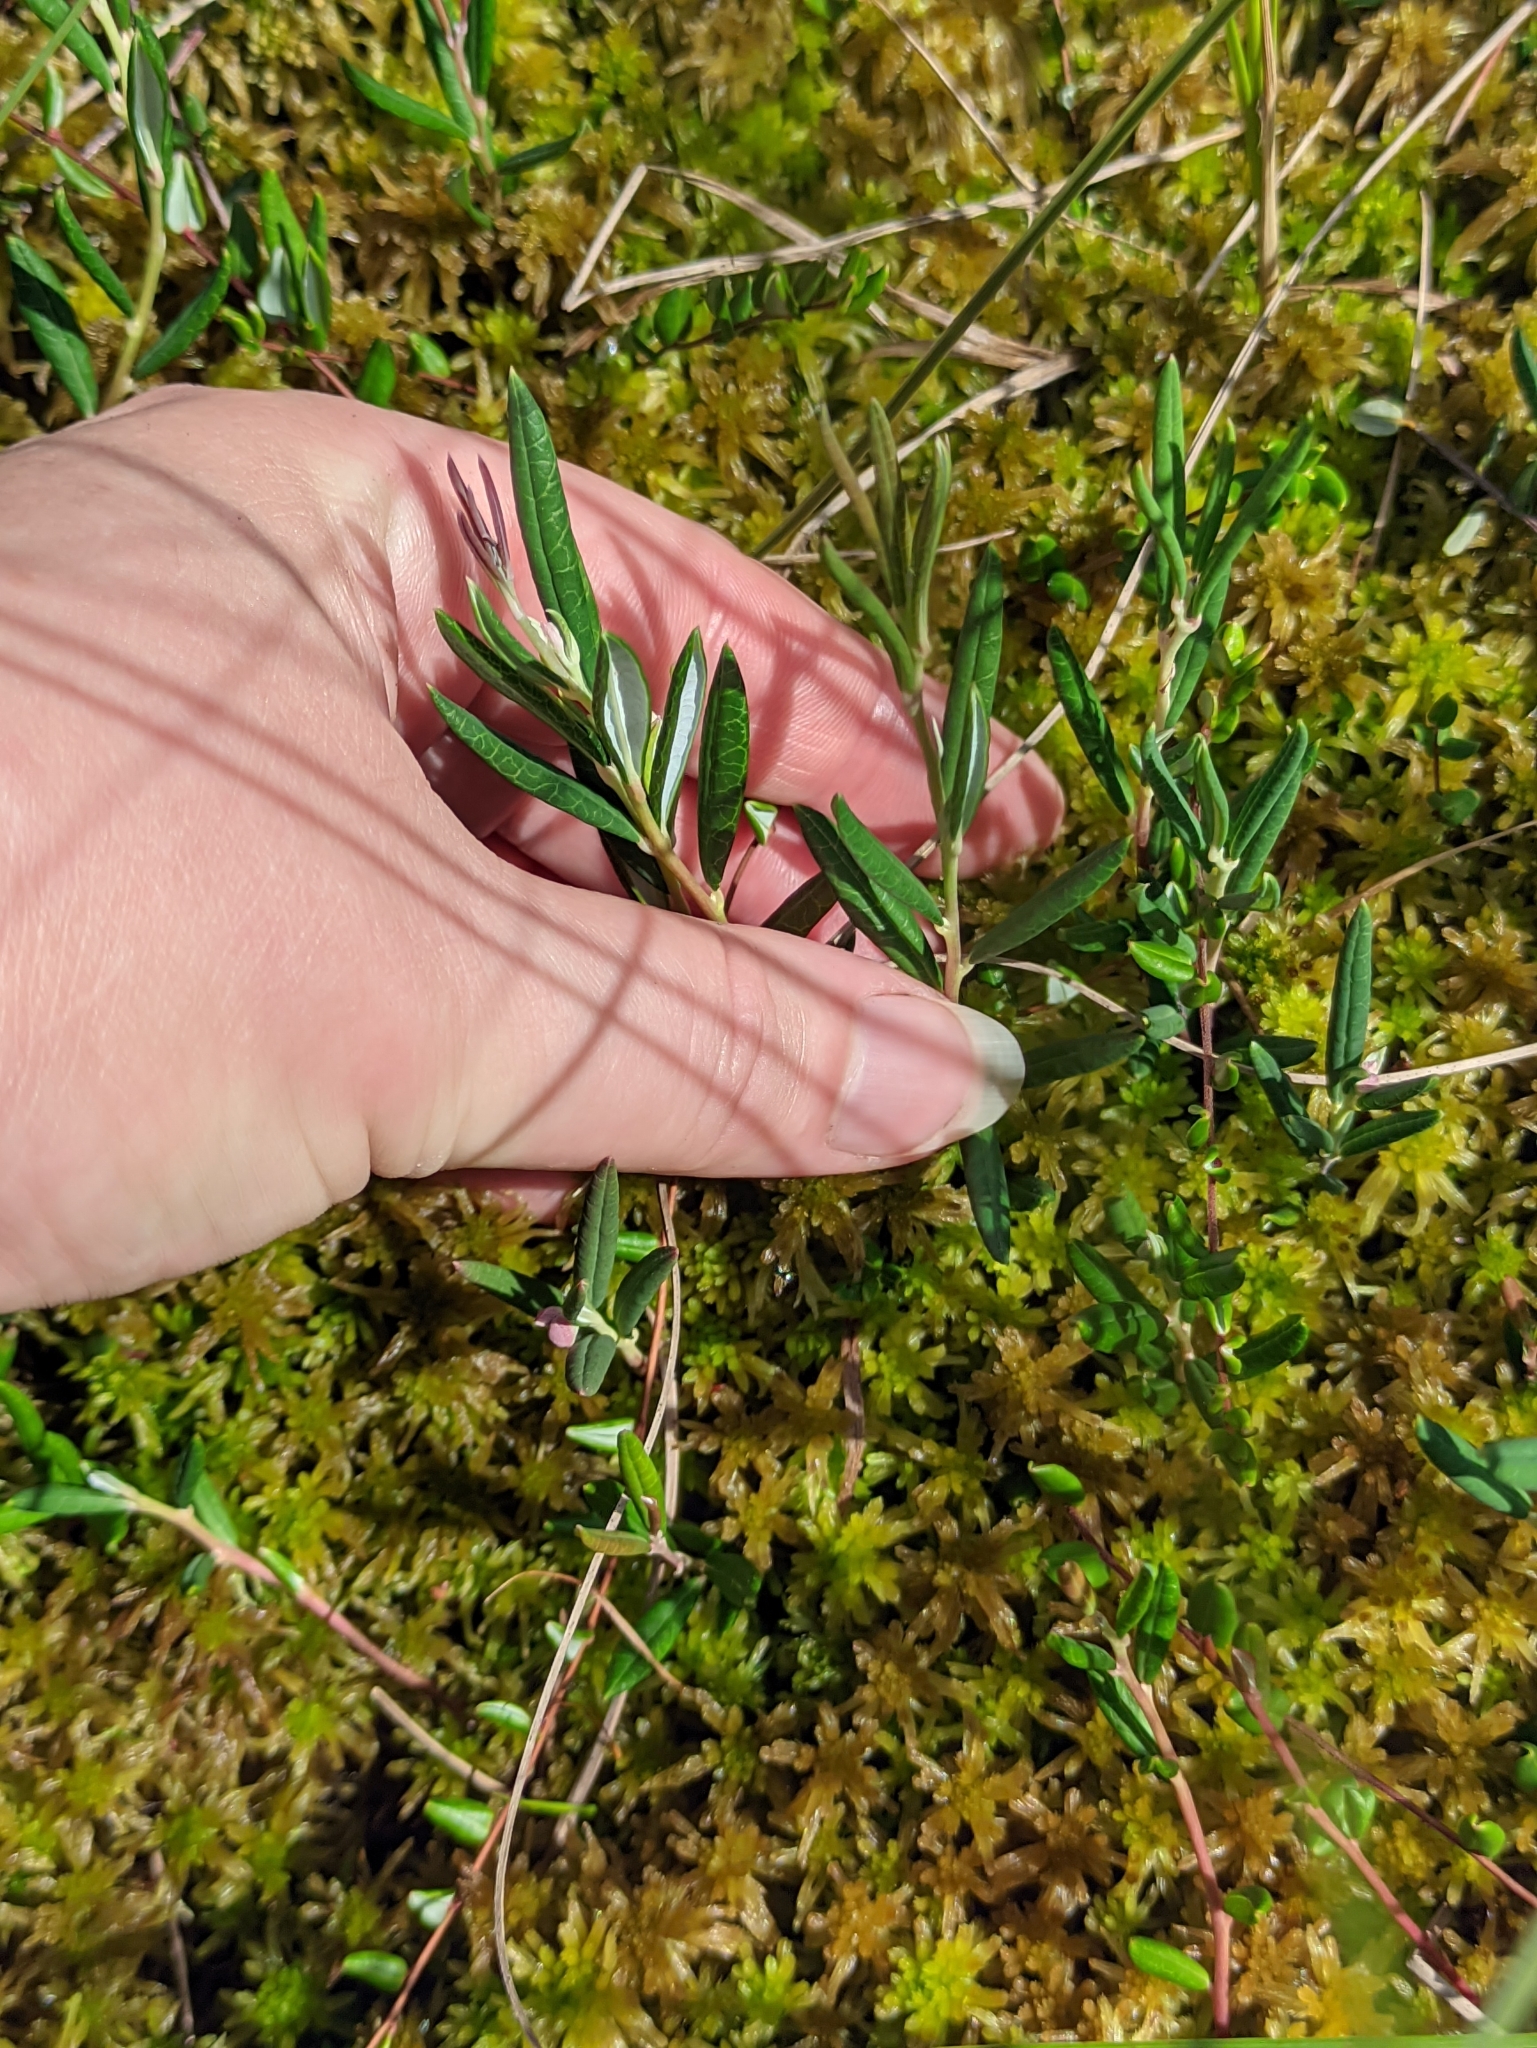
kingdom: Plantae
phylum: Tracheophyta
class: Magnoliopsida
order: Ericales
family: Ericaceae
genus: Andromeda
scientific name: Andromeda polifolia
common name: Bog-rosemary
